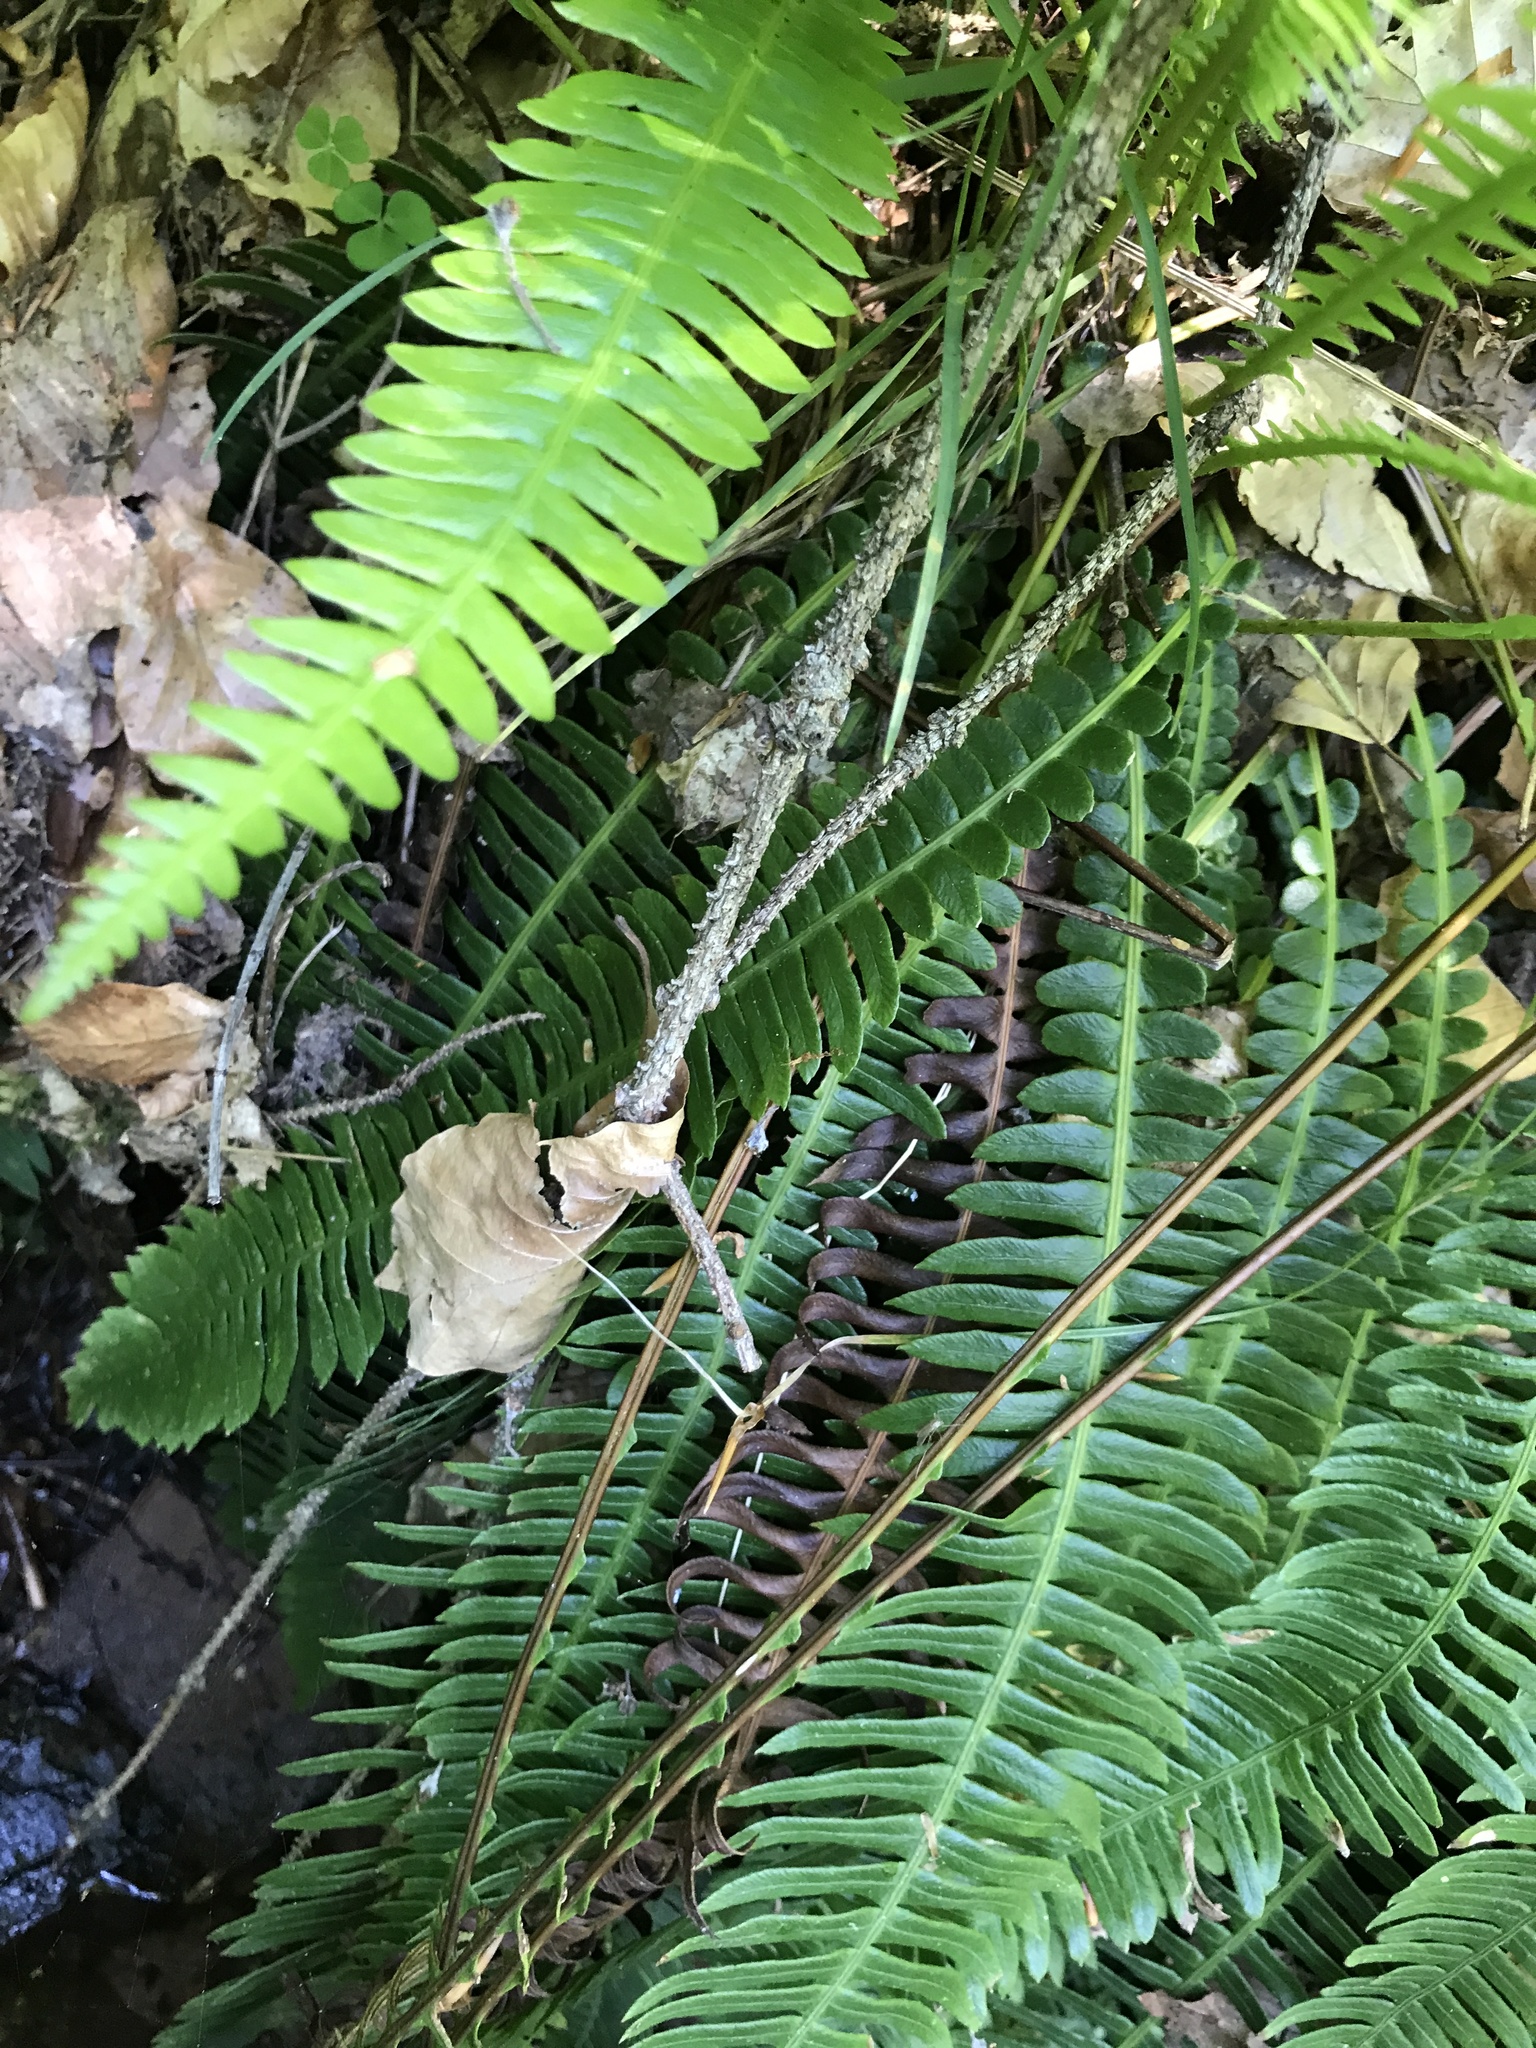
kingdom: Plantae
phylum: Tracheophyta
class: Polypodiopsida
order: Polypodiales
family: Blechnaceae
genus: Struthiopteris
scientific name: Struthiopteris spicant
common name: Deer fern
